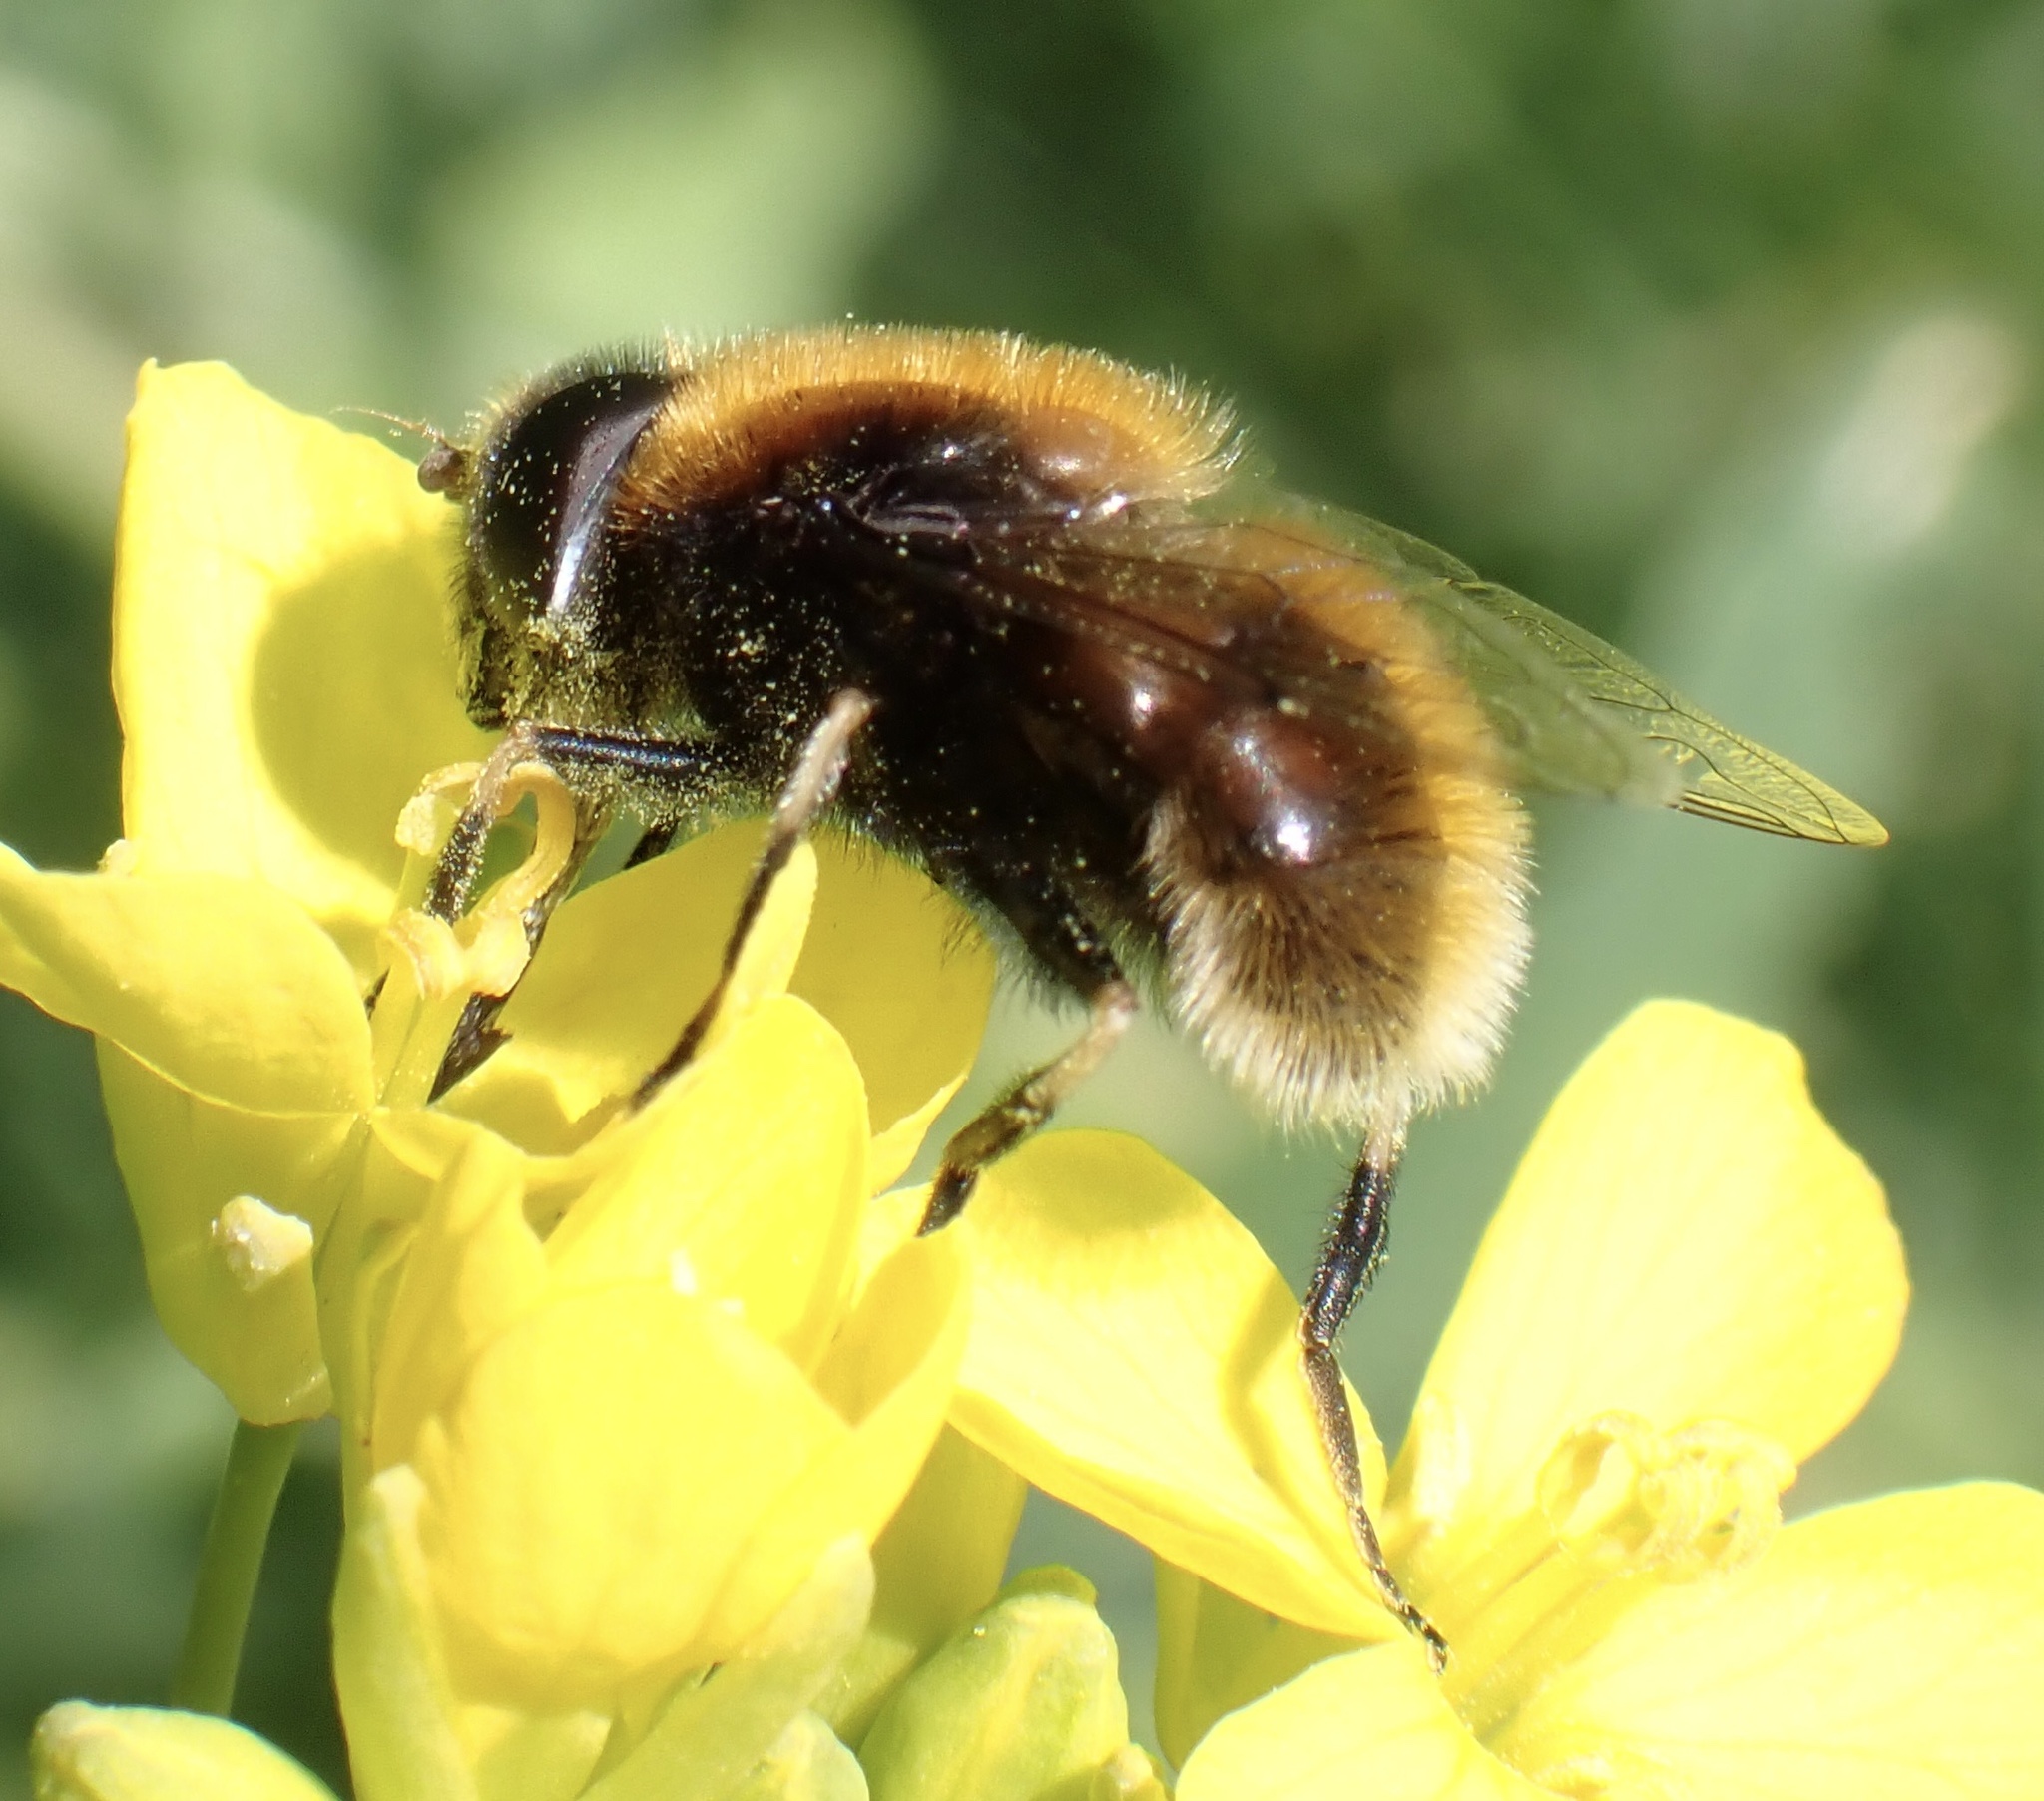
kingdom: Animalia
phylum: Arthropoda
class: Insecta
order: Diptera
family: Syrphidae
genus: Eristalis
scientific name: Eristalis intricaria
